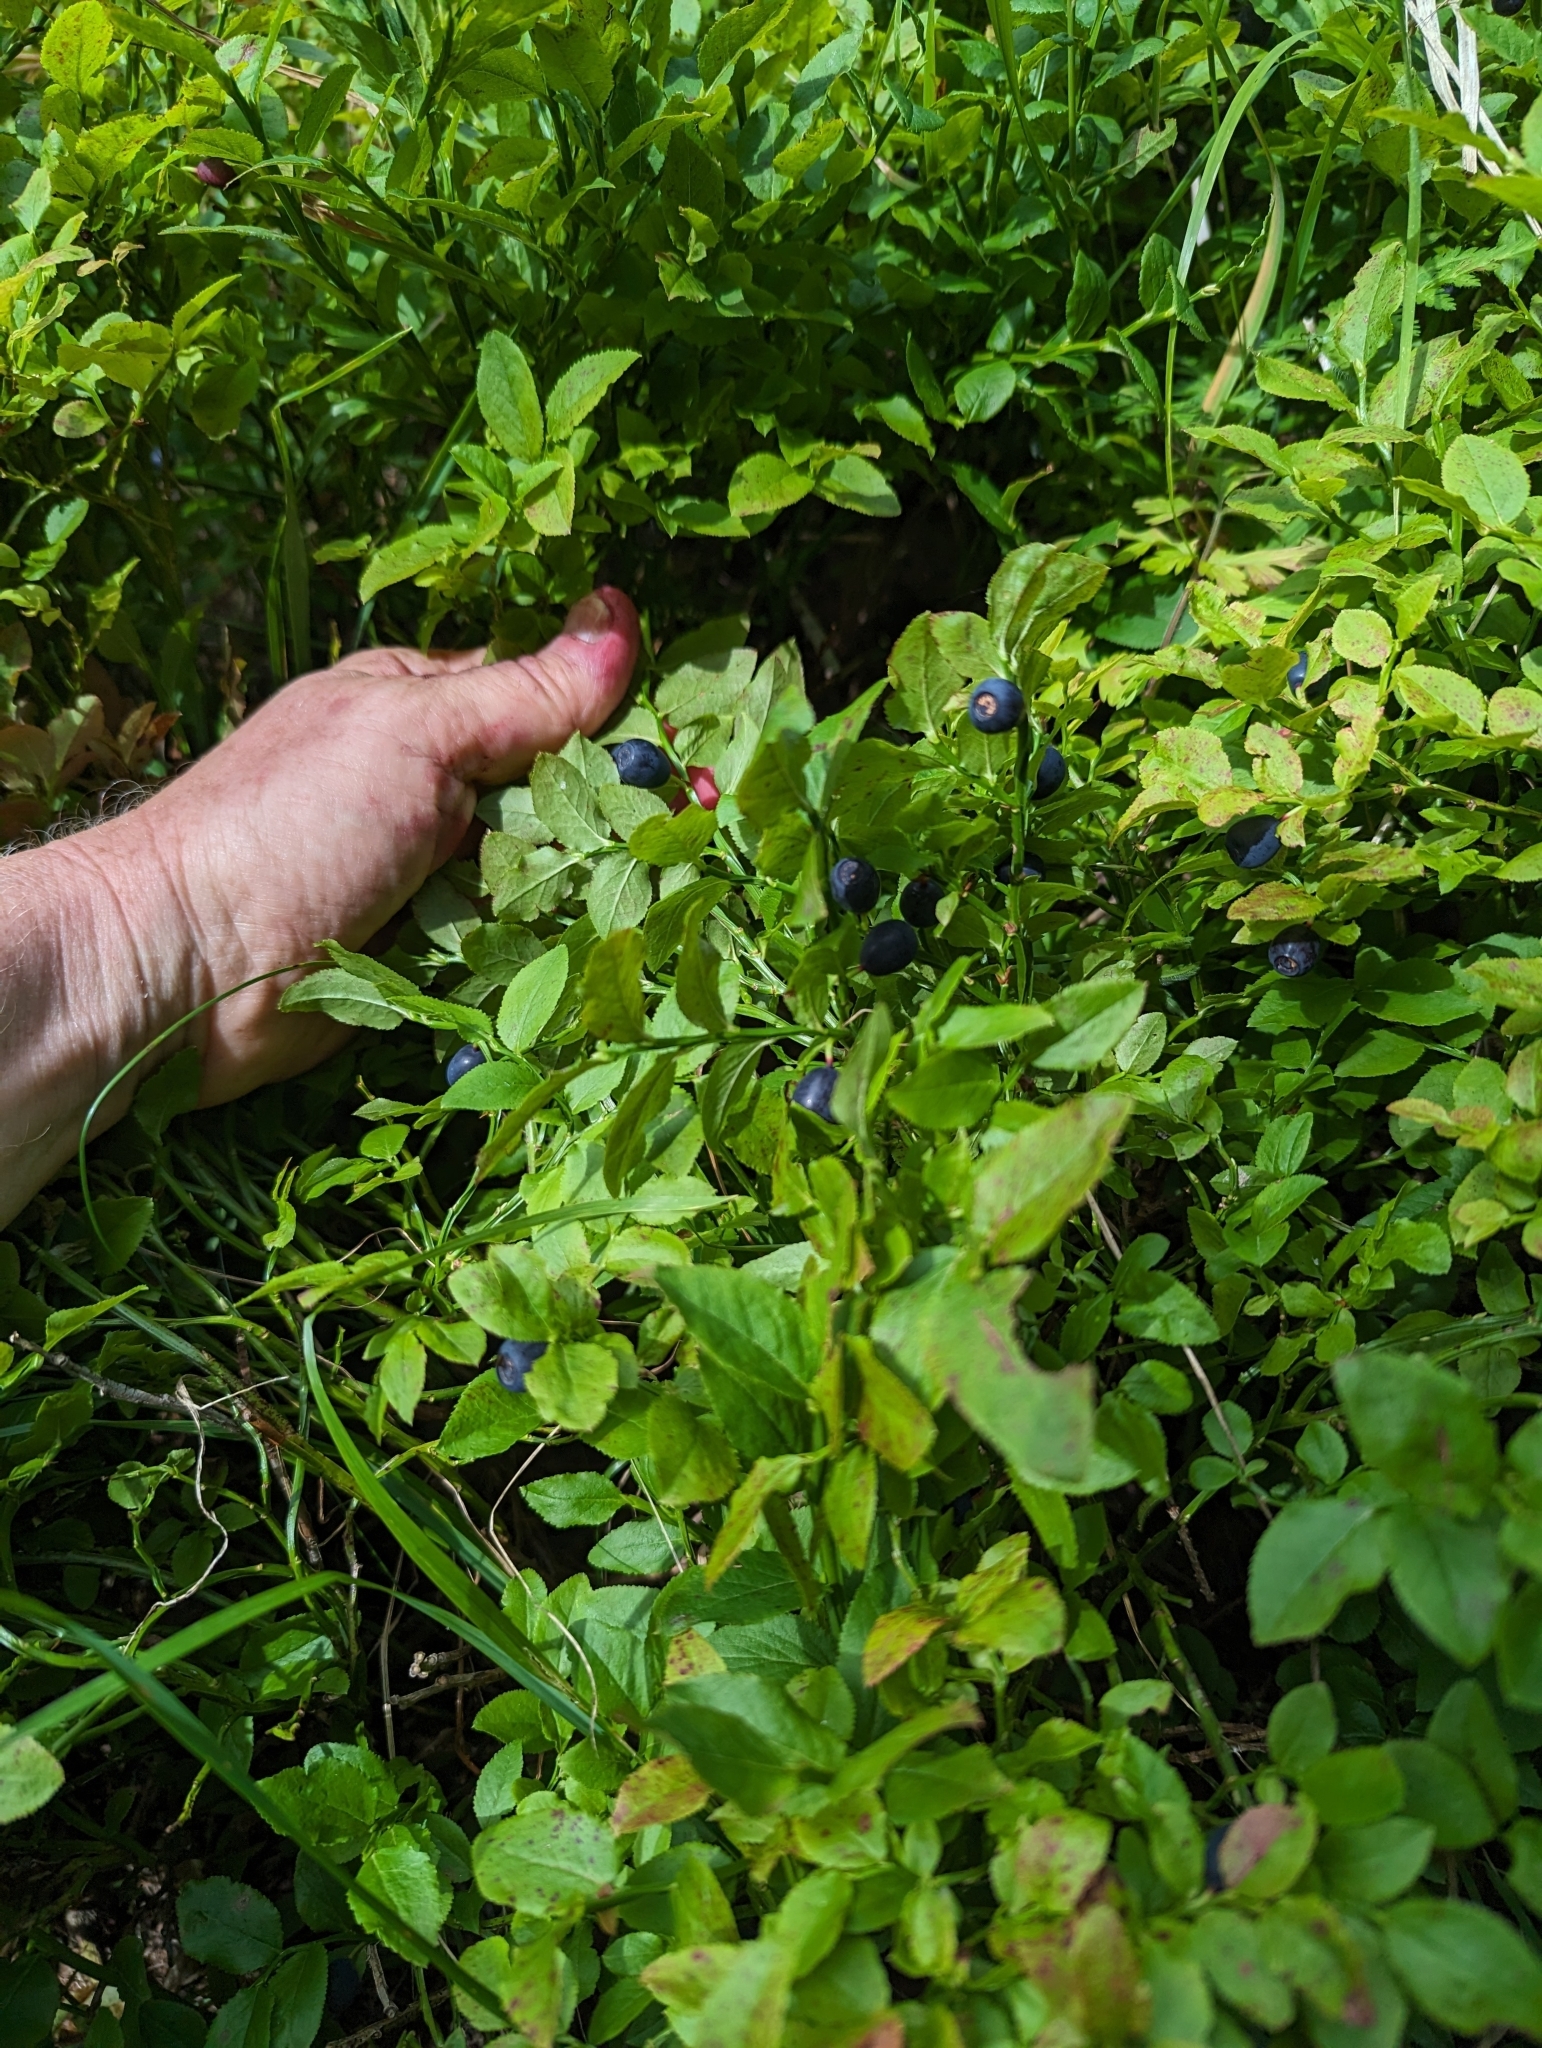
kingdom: Plantae
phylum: Tracheophyta
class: Magnoliopsida
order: Ericales
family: Ericaceae
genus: Vaccinium
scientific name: Vaccinium myrtillus
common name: Bilberry
